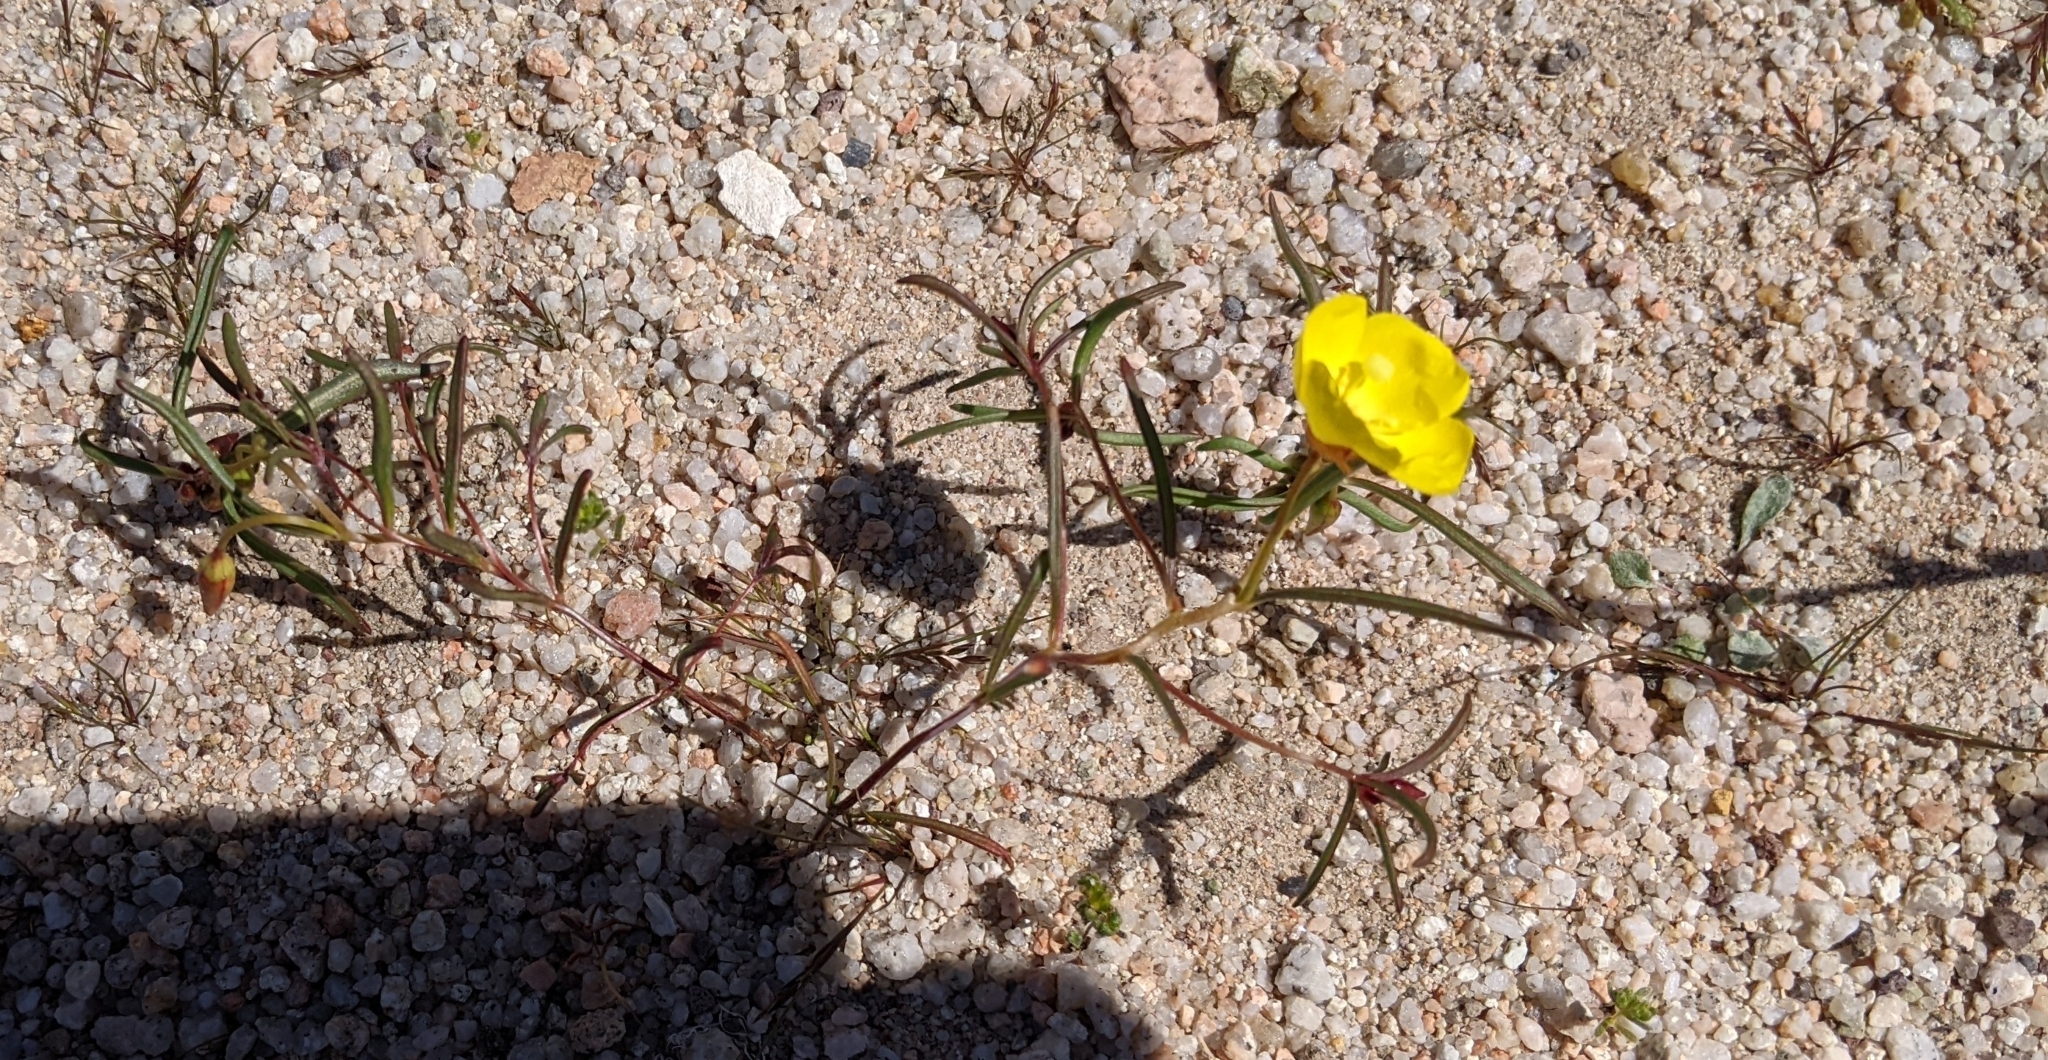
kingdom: Plantae
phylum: Tracheophyta
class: Magnoliopsida
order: Myrtales
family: Onagraceae
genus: Camissonia
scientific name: Camissonia campestris
